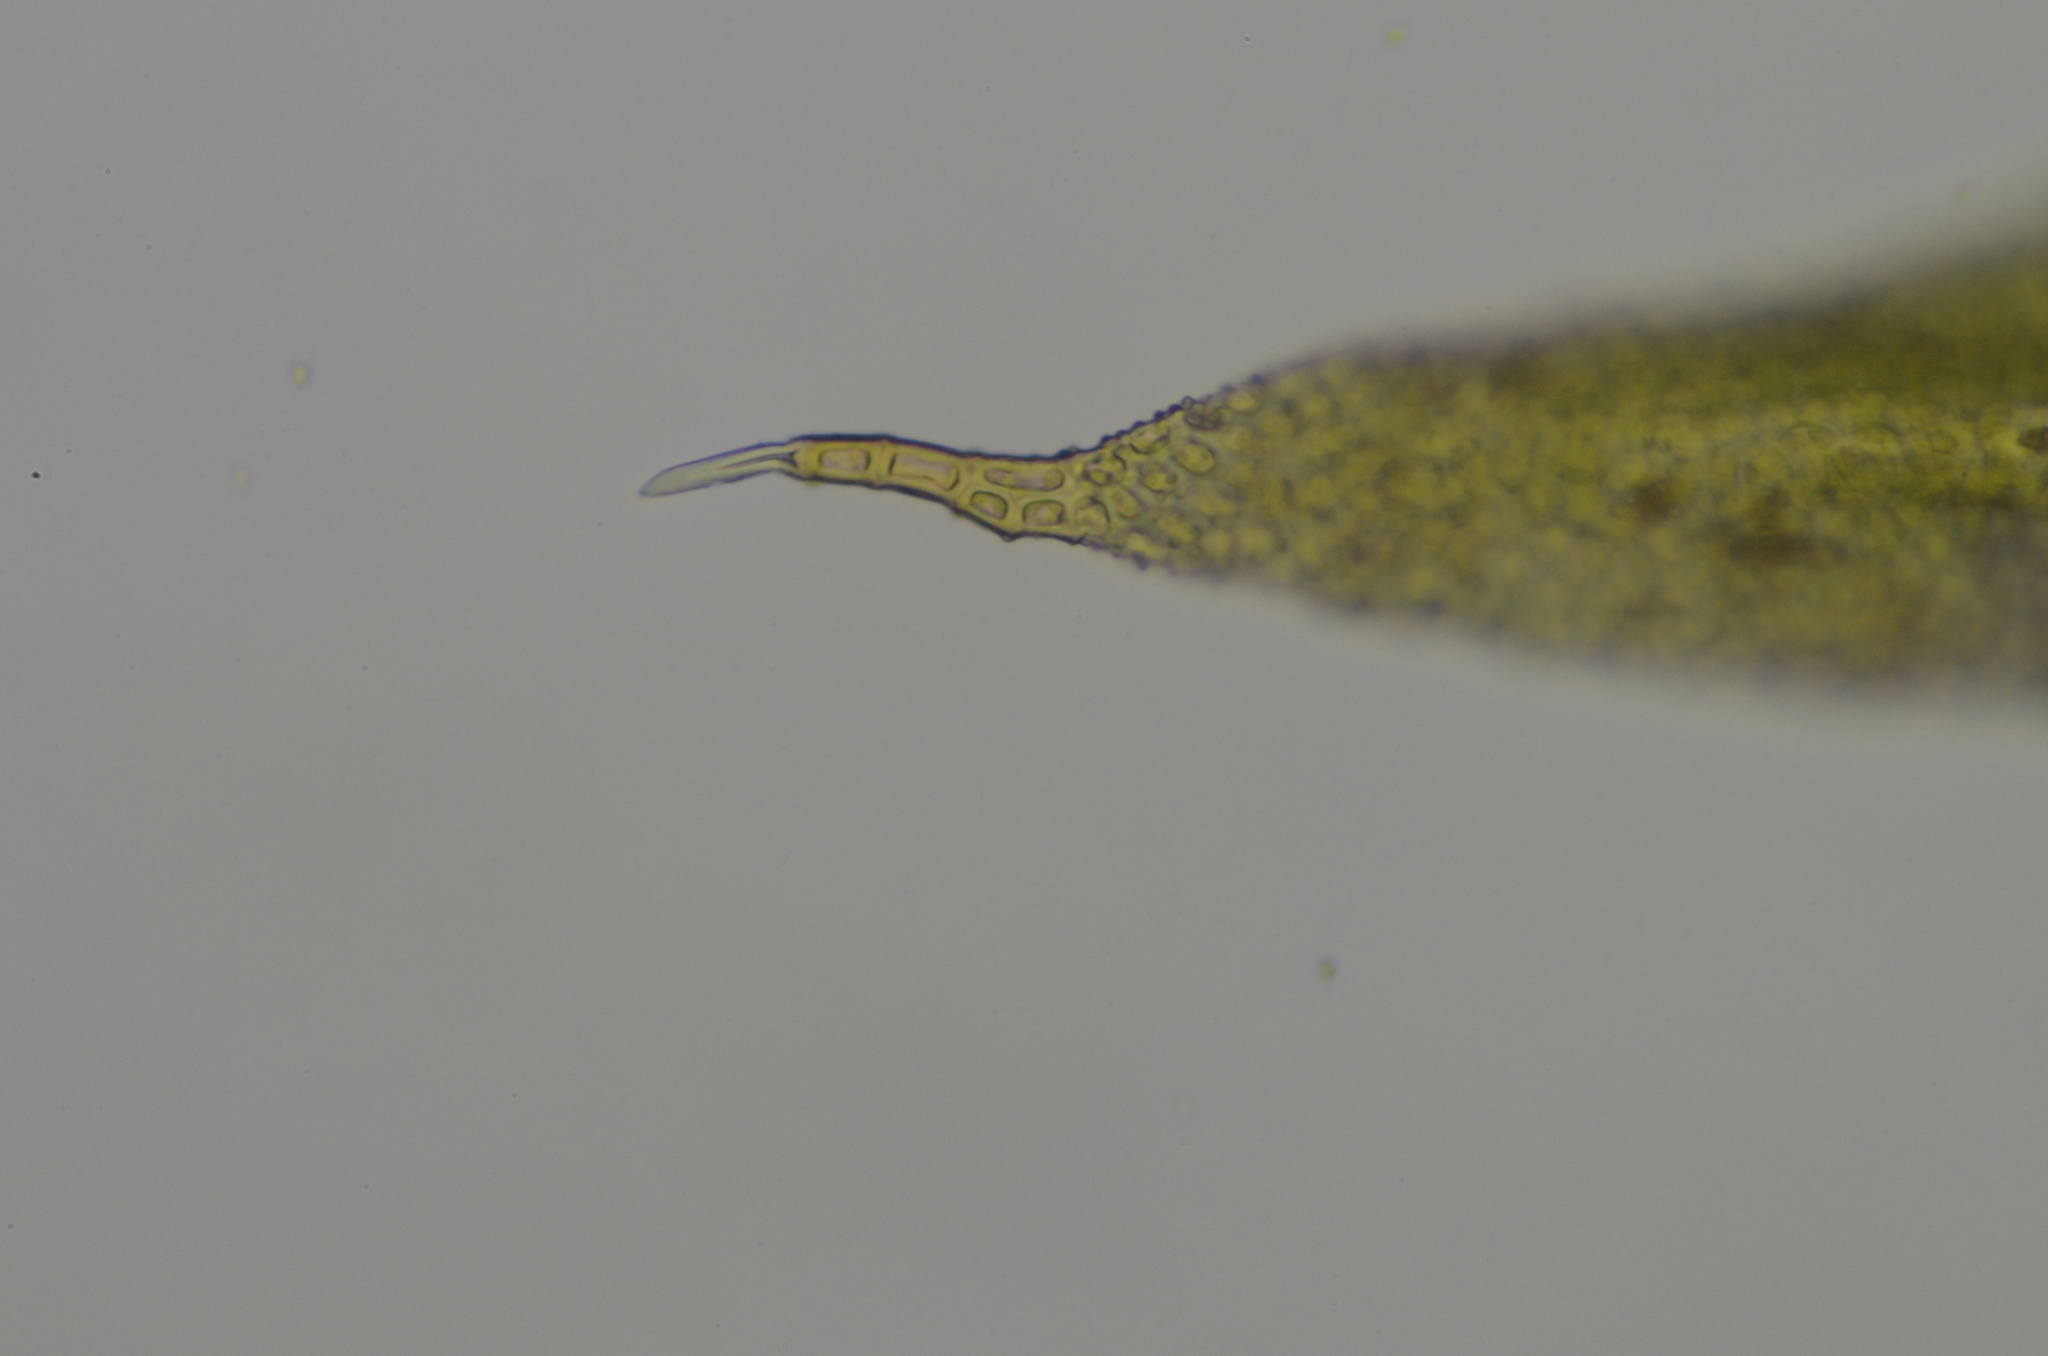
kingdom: Plantae
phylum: Bryophyta
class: Bryopsida
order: Orthotrichales
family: Orthotrichaceae
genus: Zygodon
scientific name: Zygodon rupestris
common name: Park yoke moss
